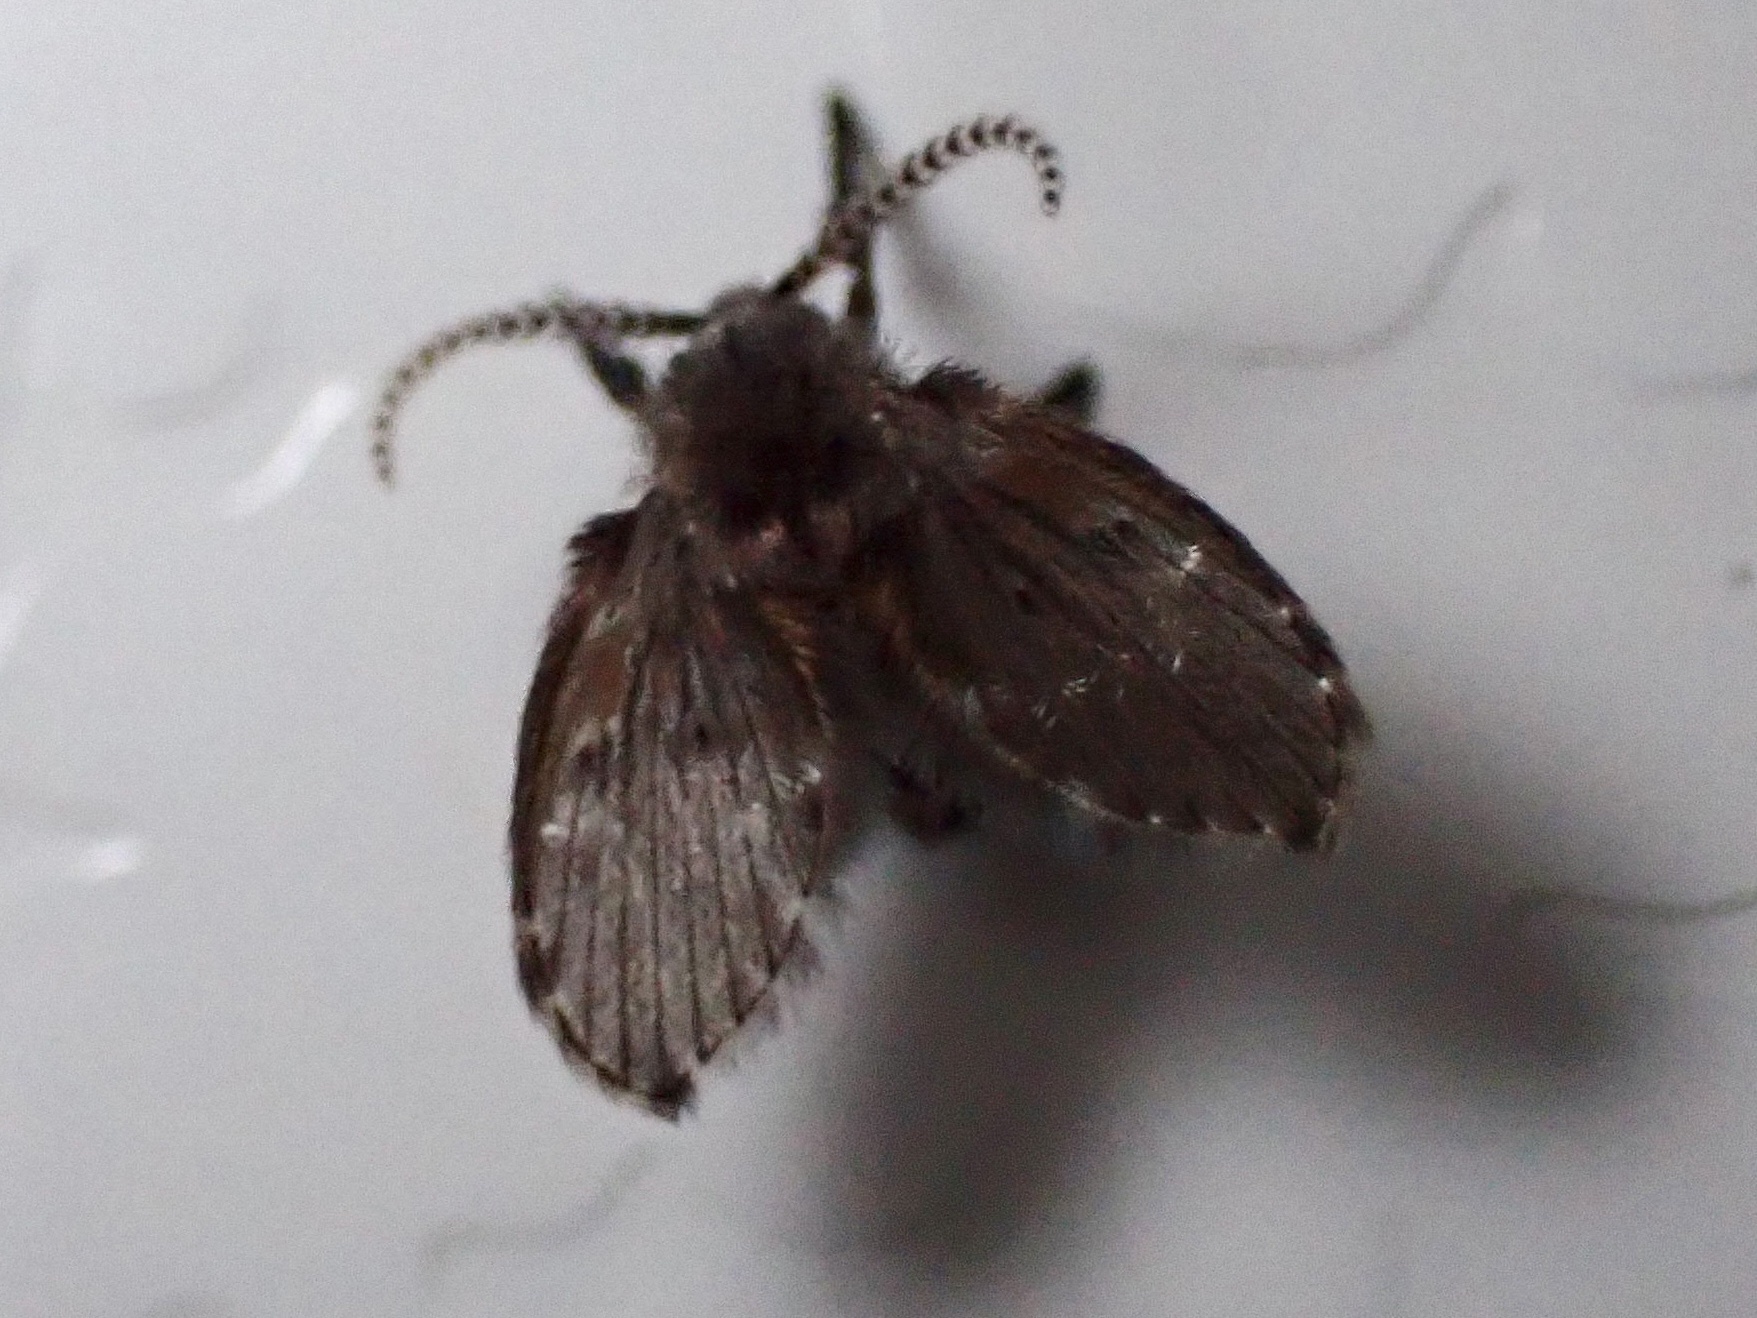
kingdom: Animalia
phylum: Arthropoda
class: Insecta
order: Diptera
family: Psychodidae
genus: Clogmia
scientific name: Clogmia albipunctatus
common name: White-spotted moth fly
